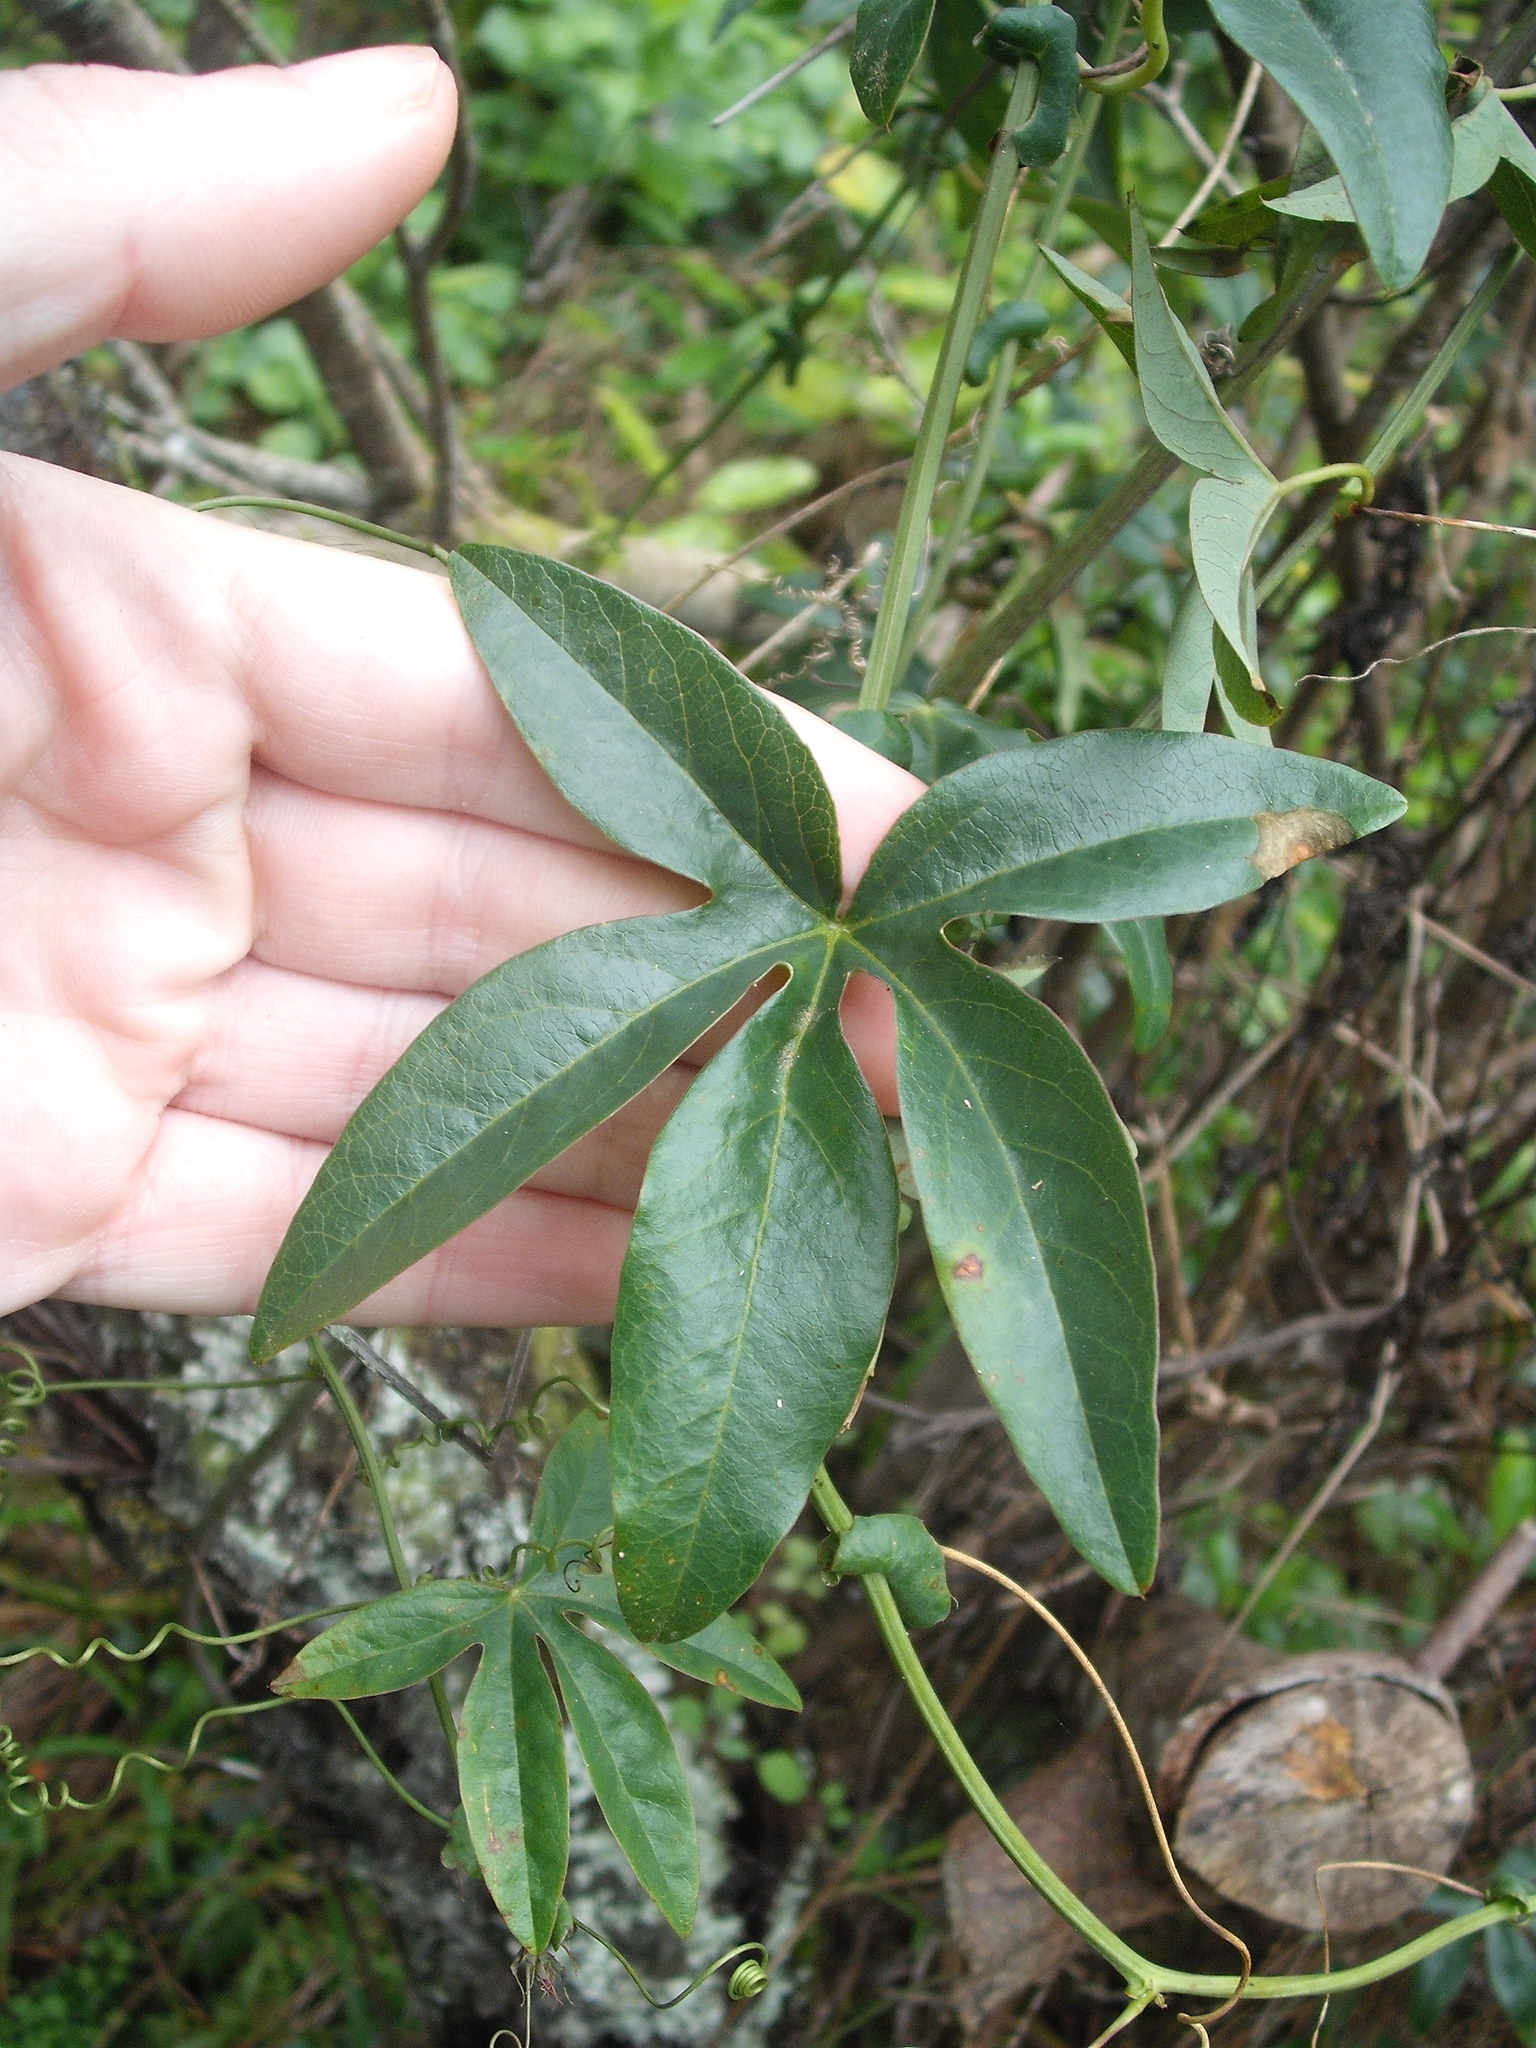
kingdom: Plantae
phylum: Tracheophyta
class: Magnoliopsida
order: Malpighiales
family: Passifloraceae
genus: Passiflora
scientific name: Passiflora caerulea
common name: Blue passionflower
